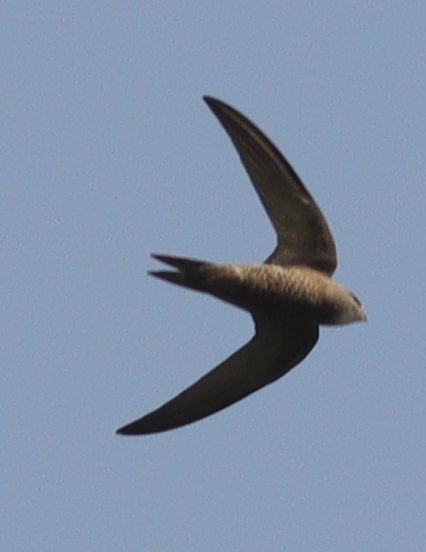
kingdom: Animalia
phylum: Chordata
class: Aves
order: Apodiformes
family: Apodidae
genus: Apus
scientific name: Apus pallidus
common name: Pallid swift
